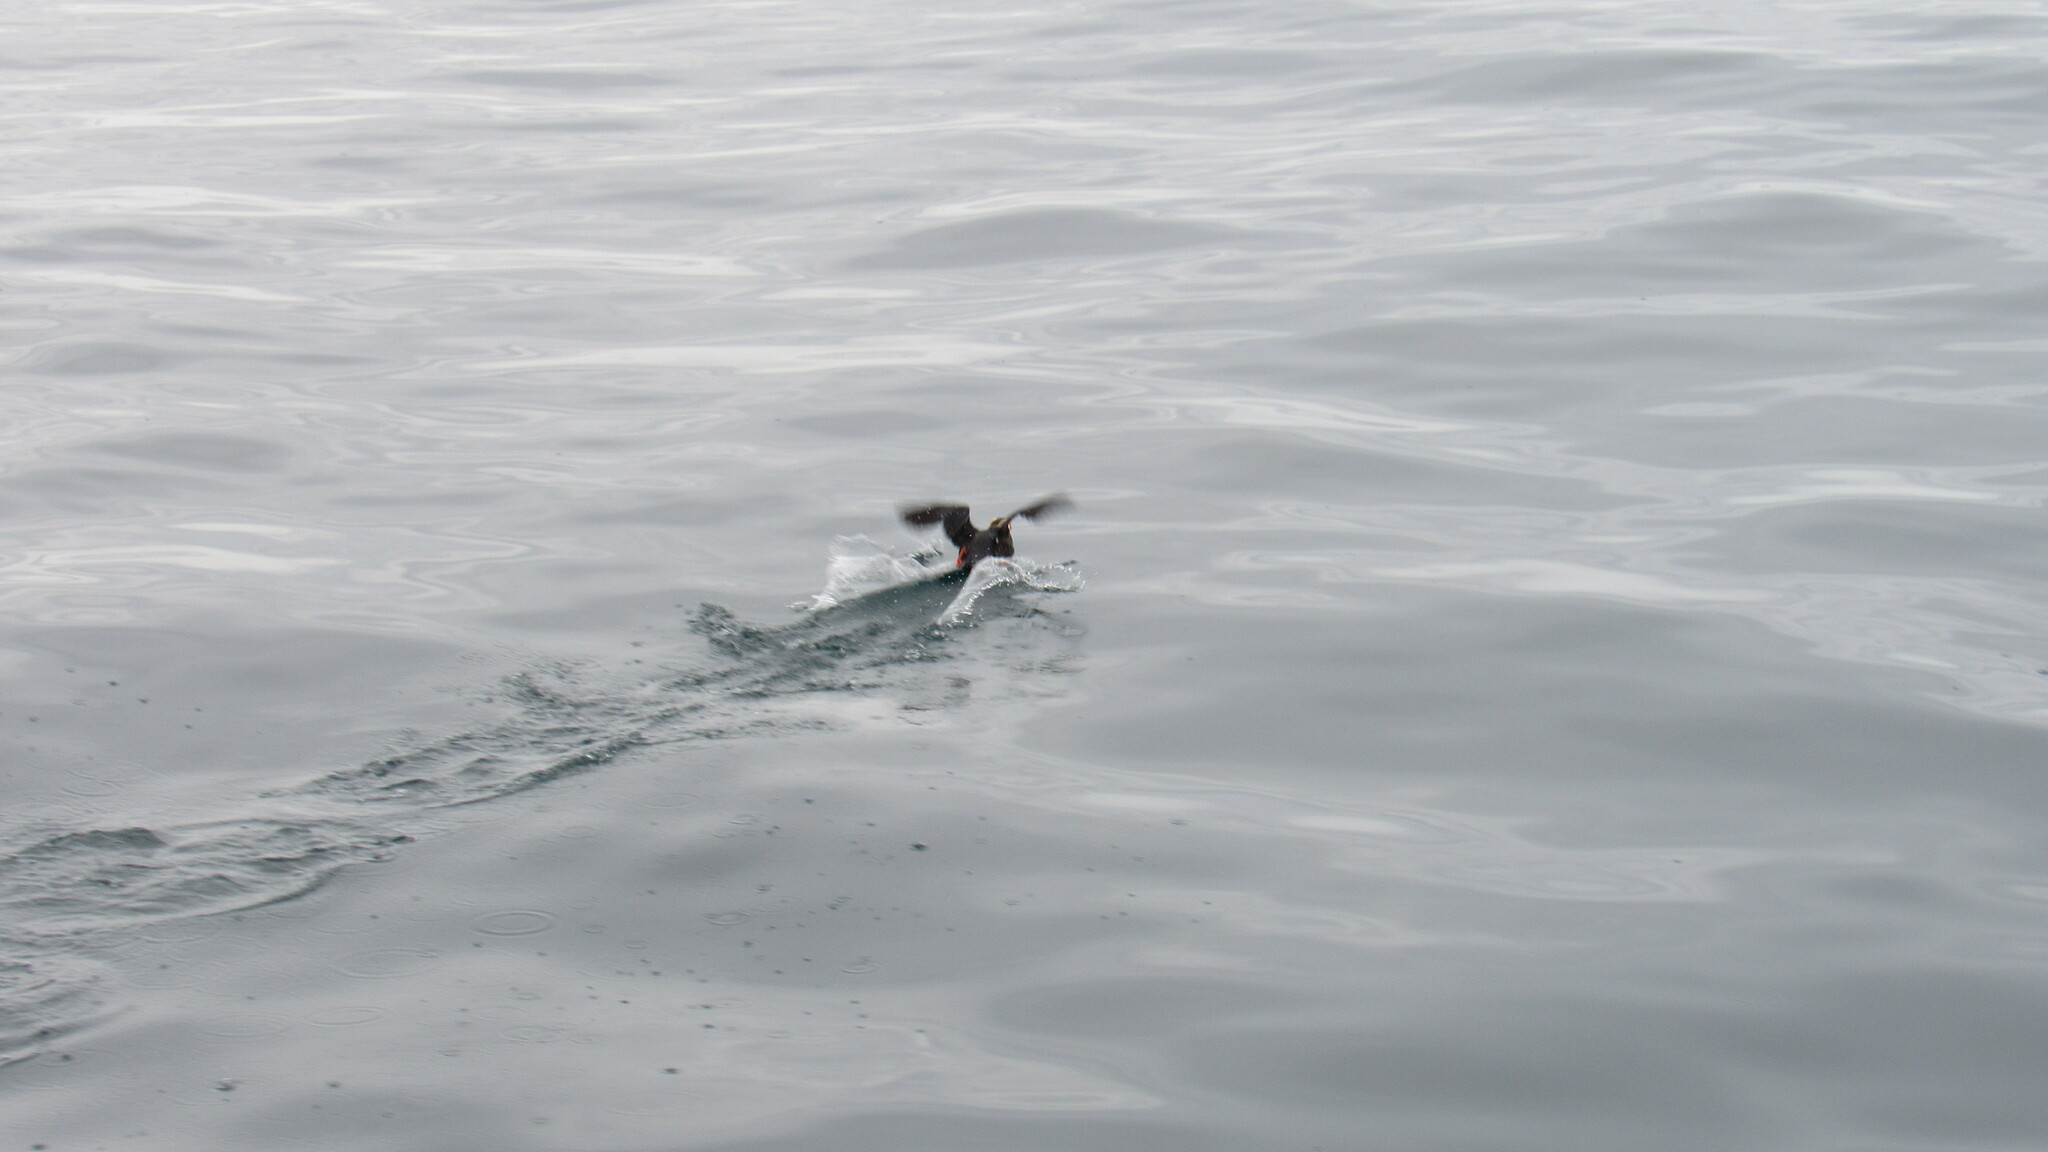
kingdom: Animalia
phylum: Chordata
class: Aves
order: Charadriiformes
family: Alcidae
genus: Fratercula
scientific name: Fratercula cirrhata
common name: Tufted puffin
